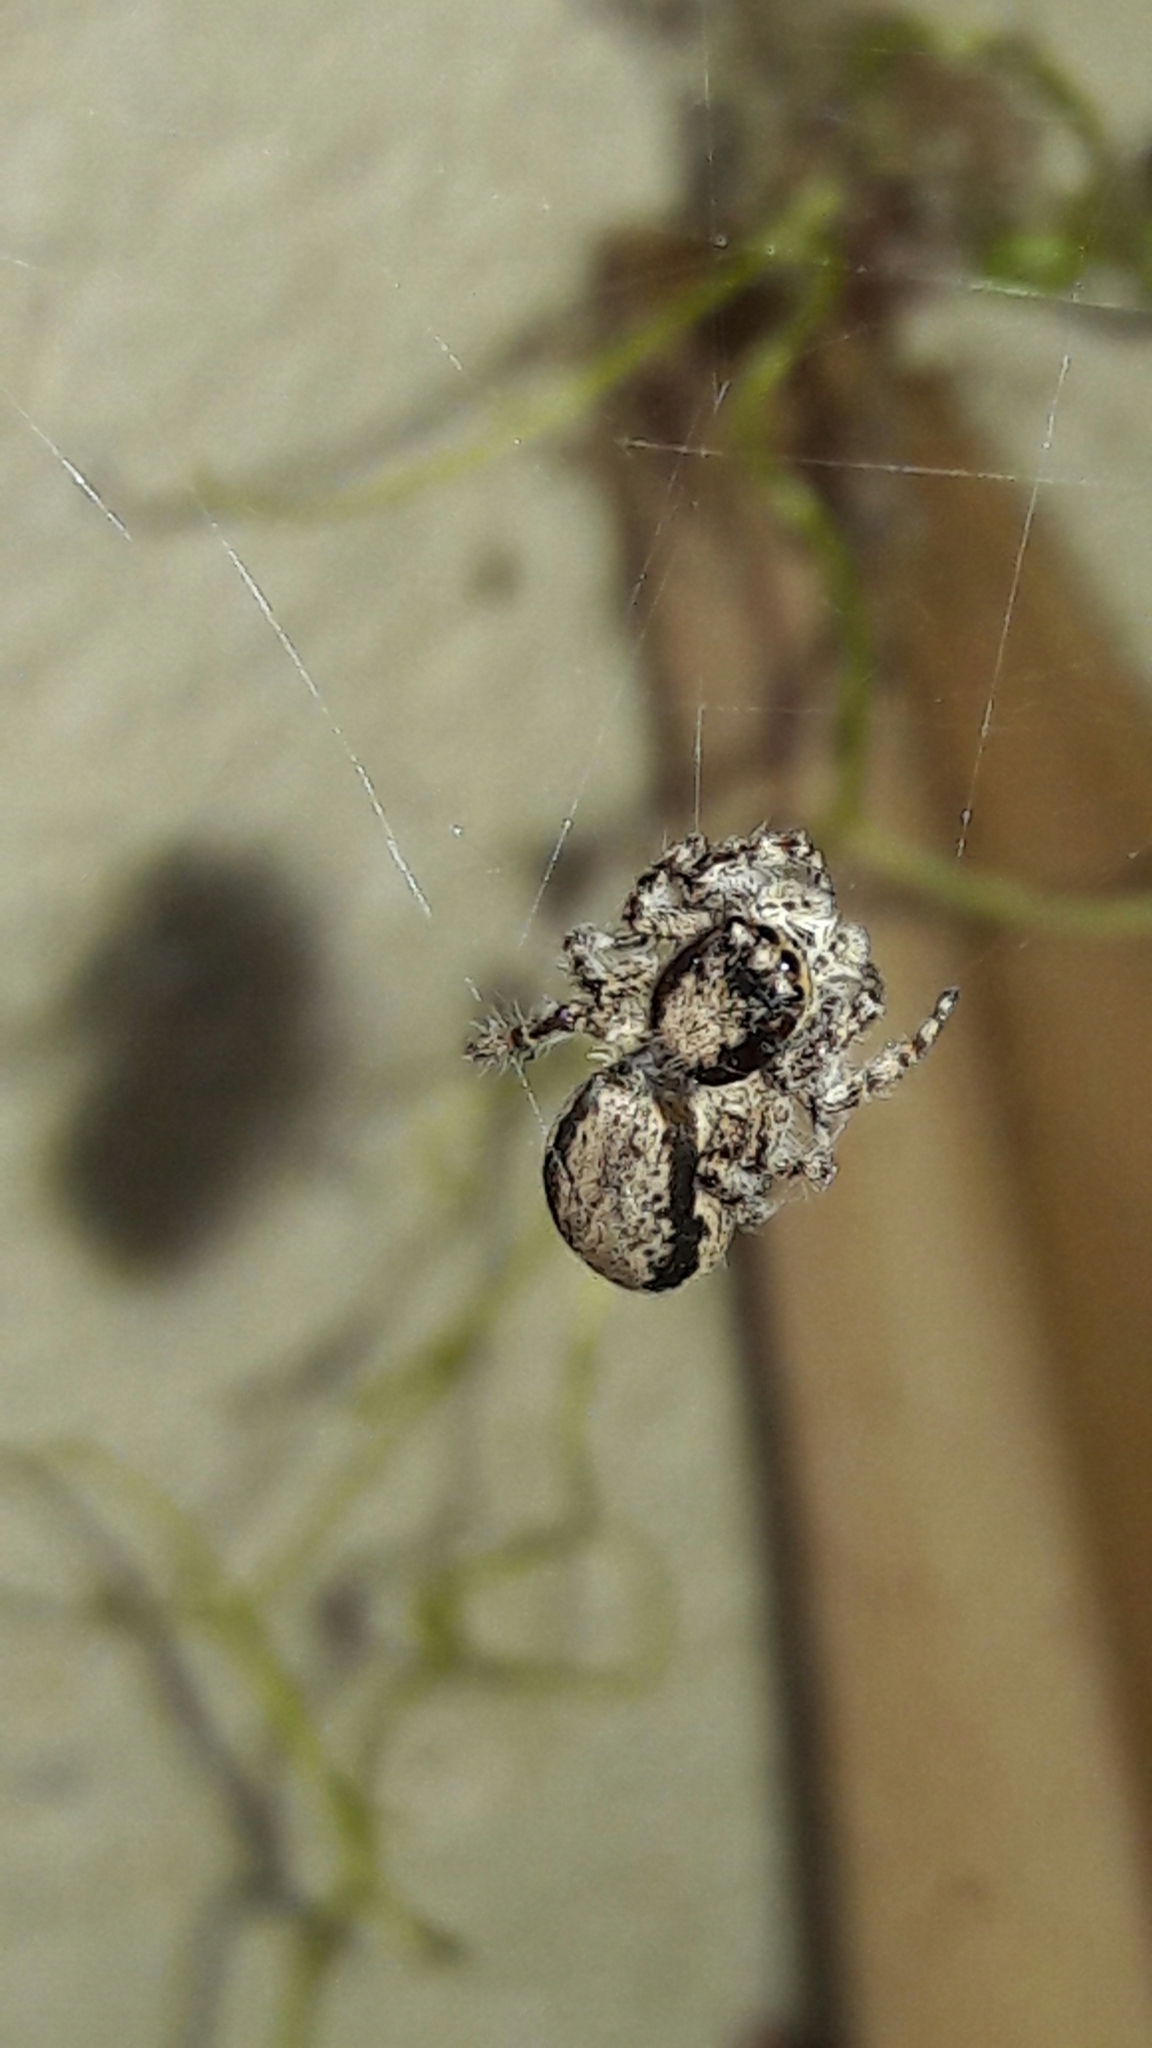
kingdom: Animalia
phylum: Arthropoda
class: Arachnida
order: Araneae
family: Salticidae
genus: Menemerus
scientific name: Menemerus bivittatus
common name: Gray wall jumper
